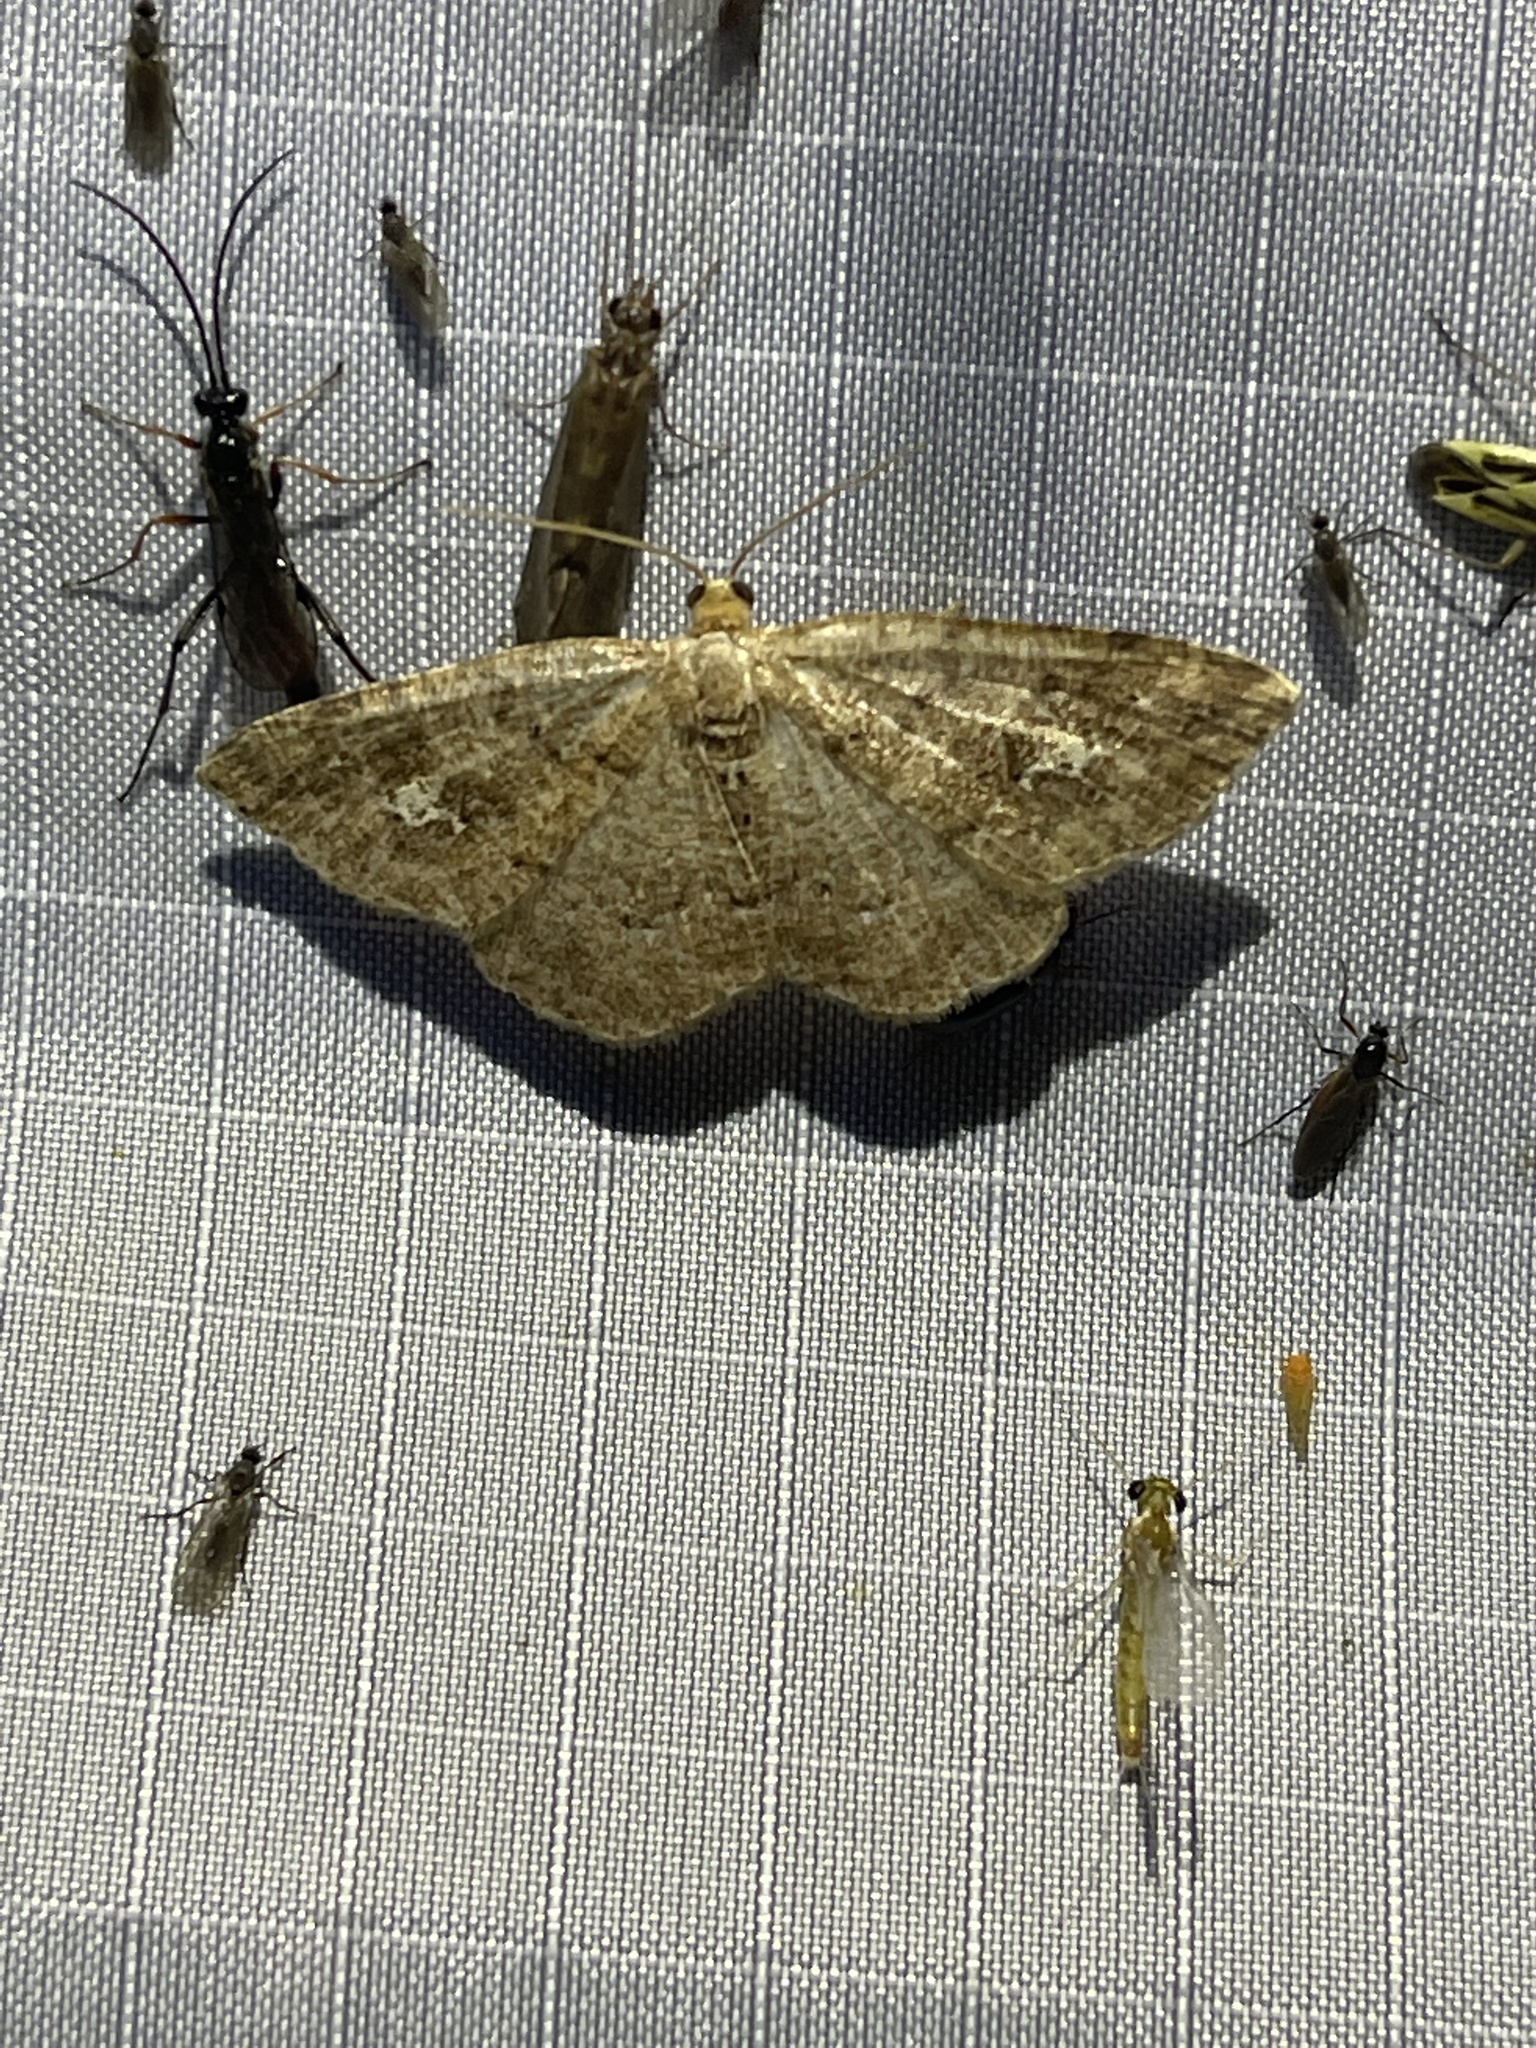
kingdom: Animalia
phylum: Arthropoda
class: Insecta
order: Lepidoptera
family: Geometridae
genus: Homochlodes
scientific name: Homochlodes fritillaria
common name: Pale homochlodes
